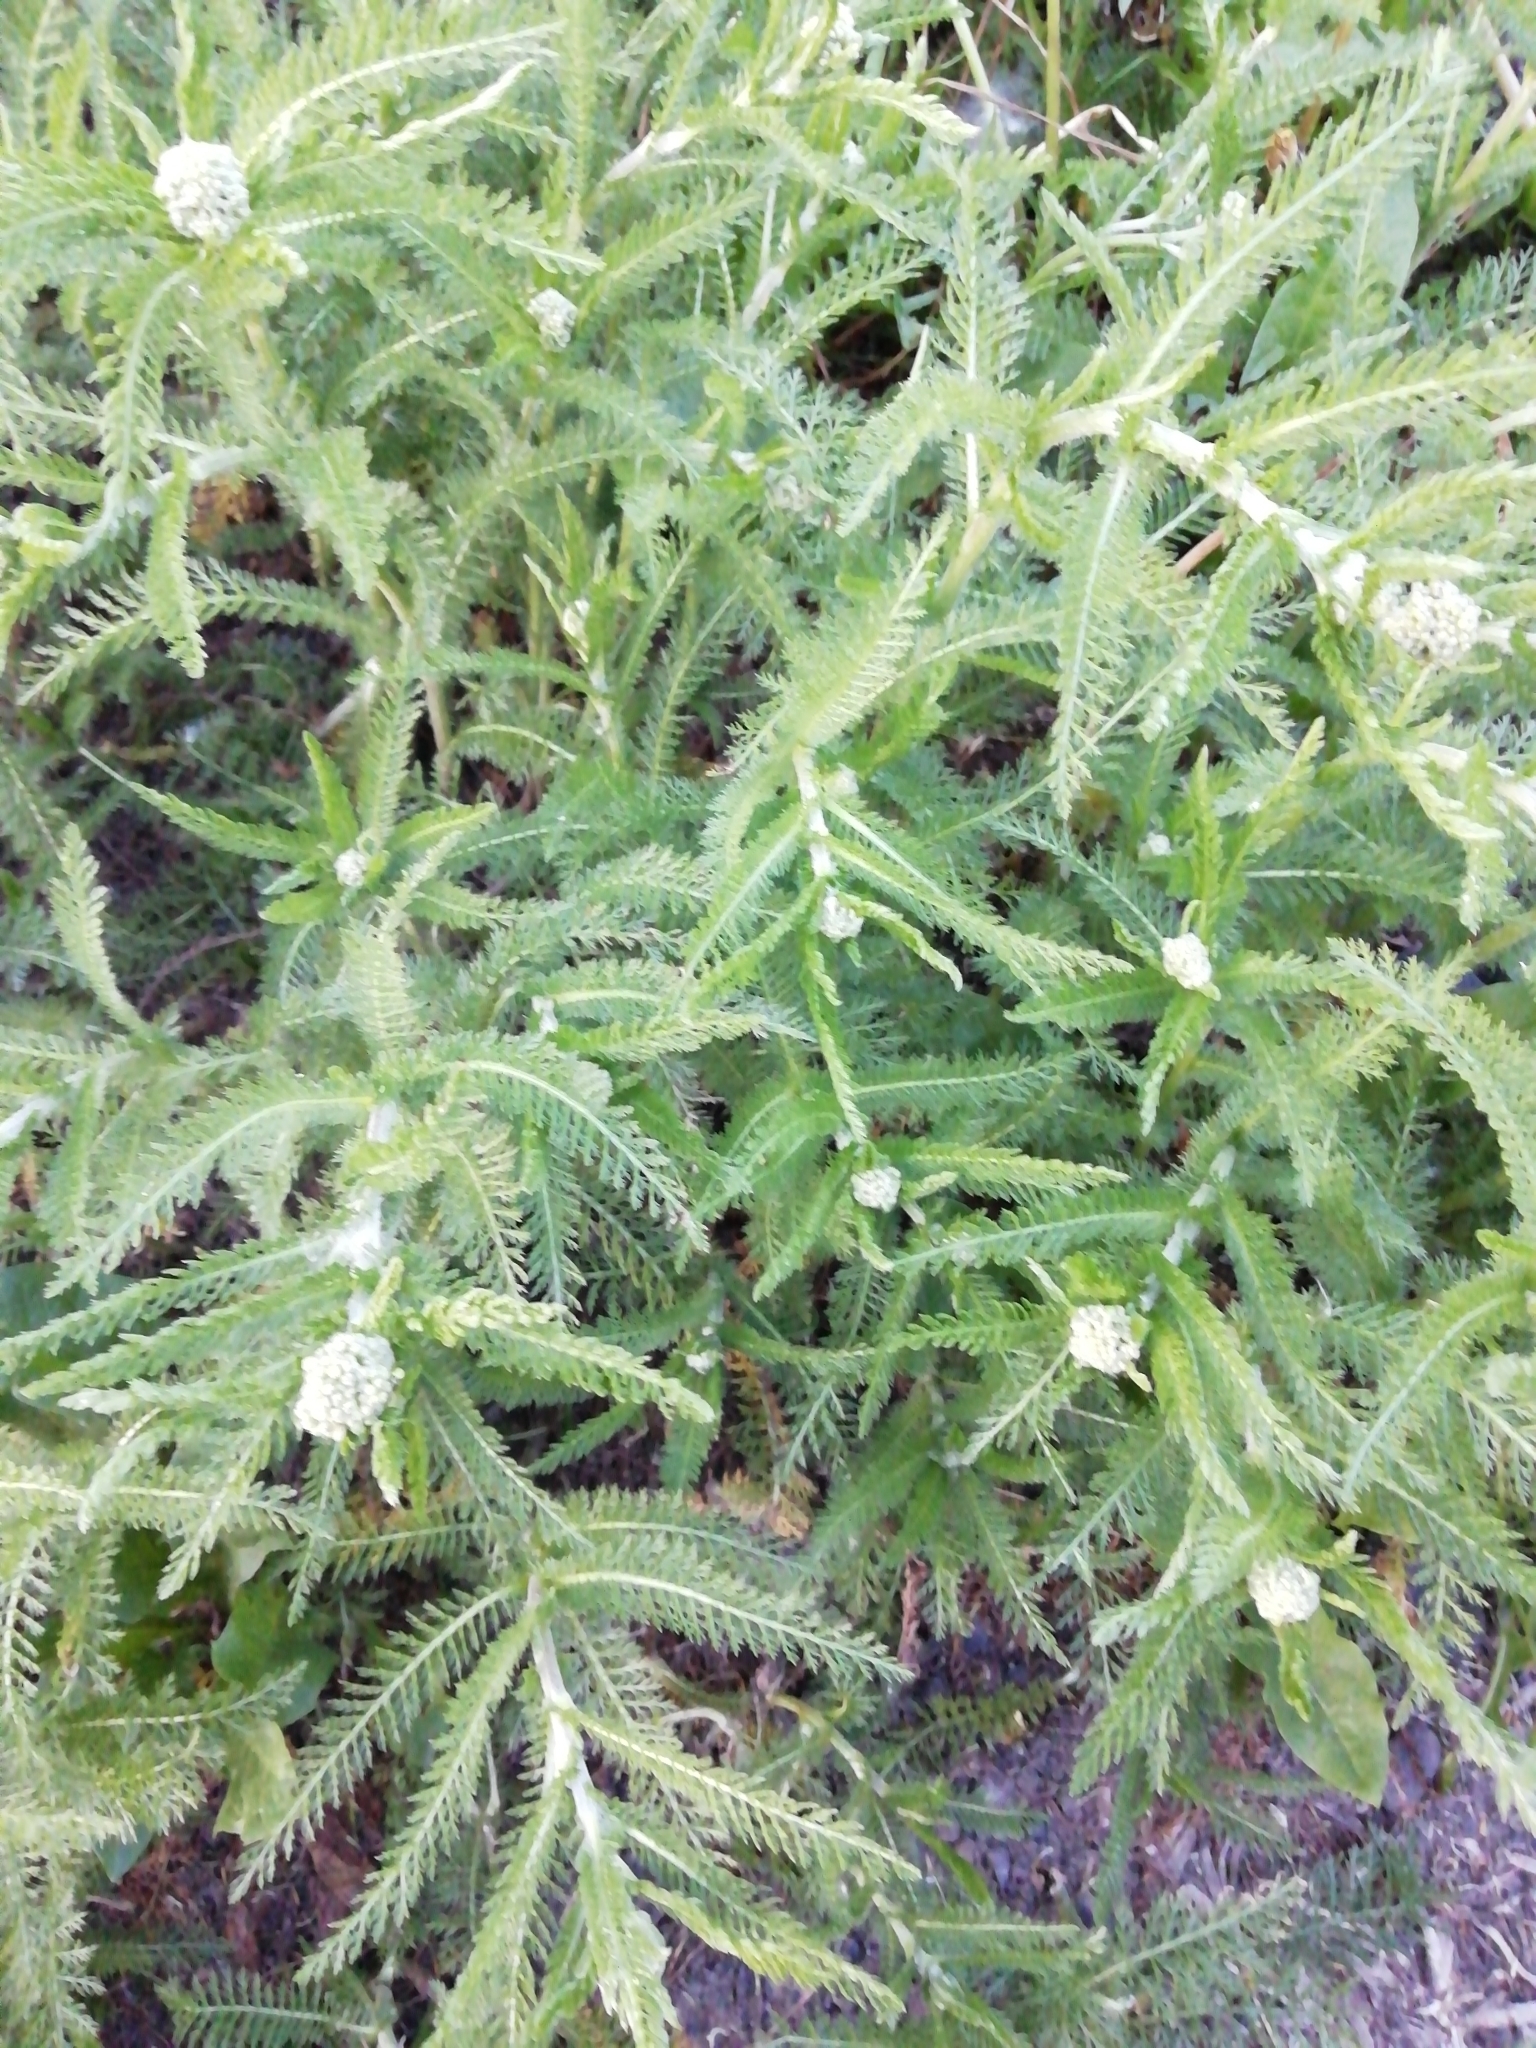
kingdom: Plantae
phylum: Tracheophyta
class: Magnoliopsida
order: Asterales
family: Asteraceae
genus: Achillea
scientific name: Achillea millefolium
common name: Yarrow
